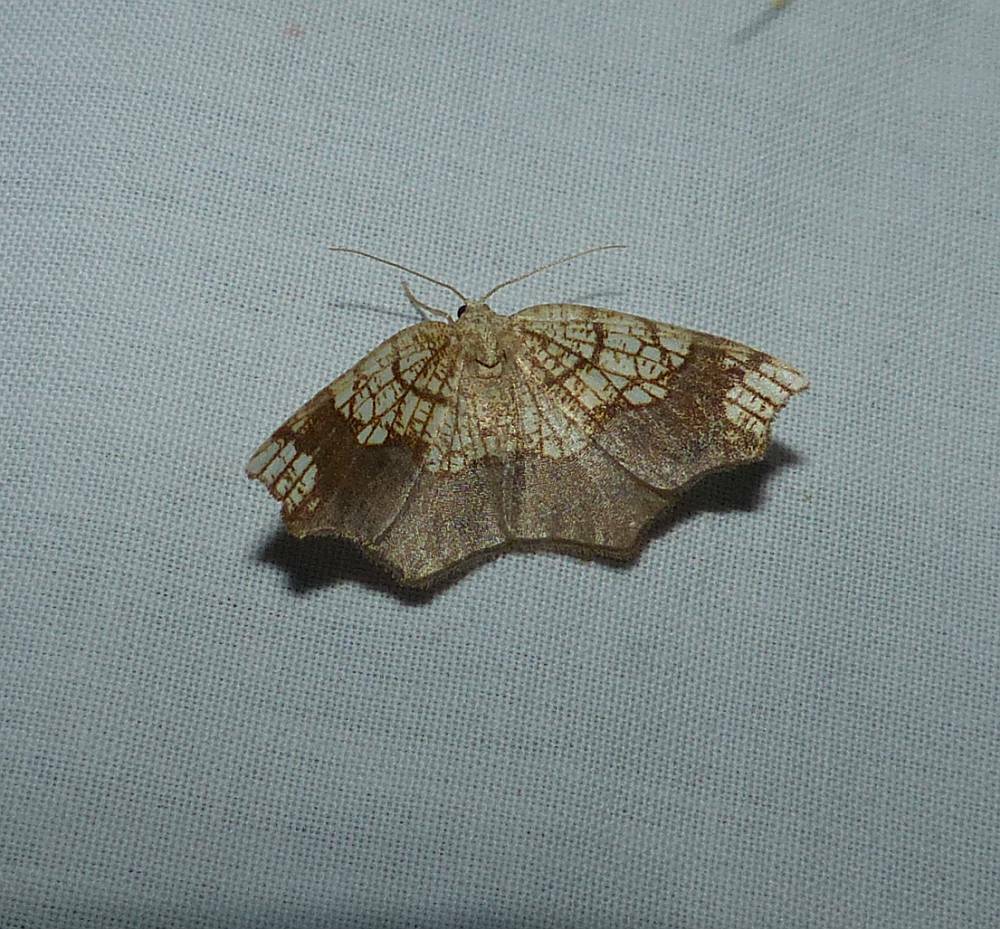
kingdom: Animalia
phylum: Arthropoda
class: Insecta
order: Lepidoptera
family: Geometridae
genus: Nematocampa
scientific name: Nematocampa resistaria
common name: Horned spanworm moth
